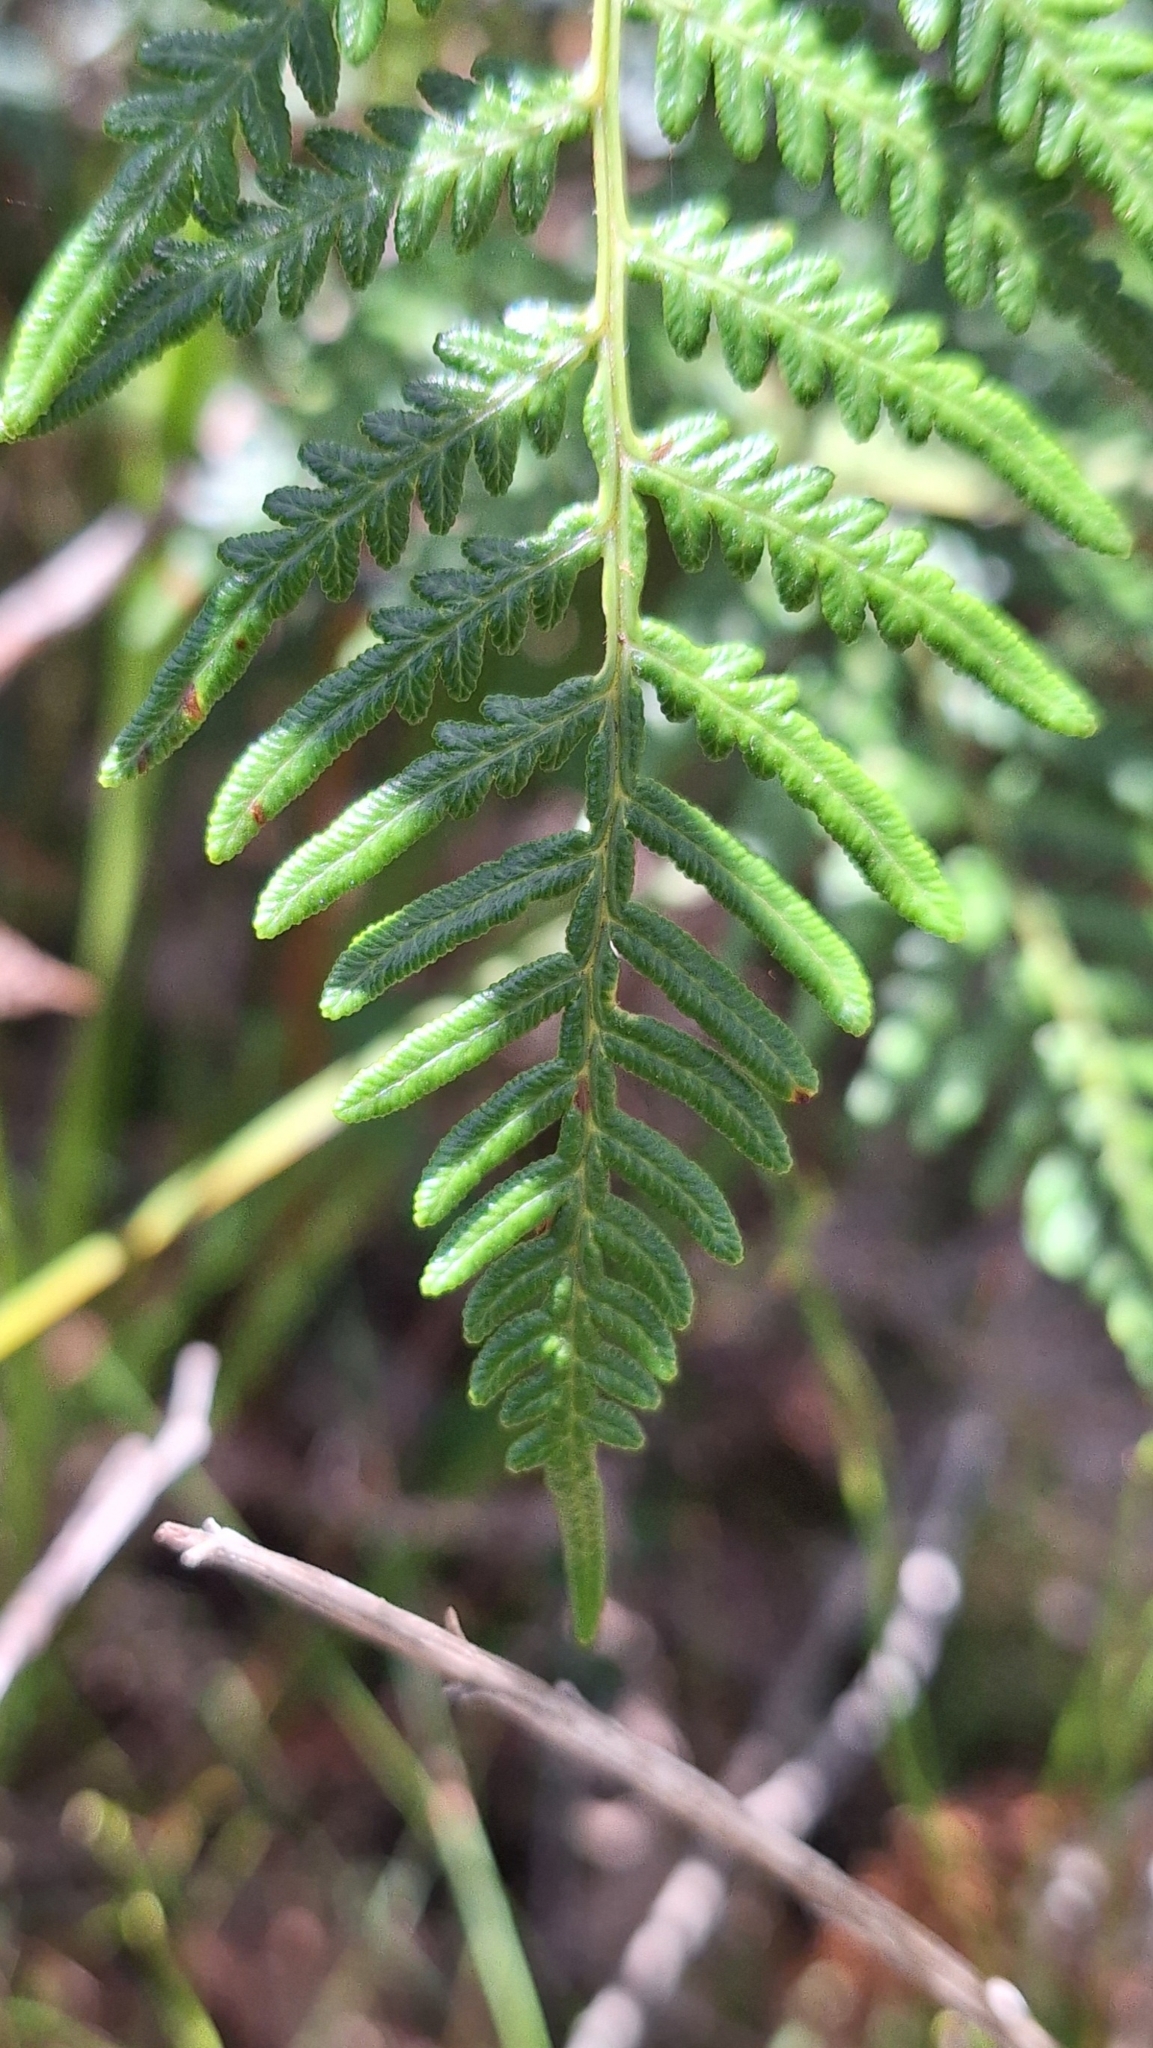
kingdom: Plantae
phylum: Tracheophyta
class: Polypodiopsida
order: Polypodiales
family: Dennstaedtiaceae
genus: Pteridium
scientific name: Pteridium esculentum
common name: Bracken fern
